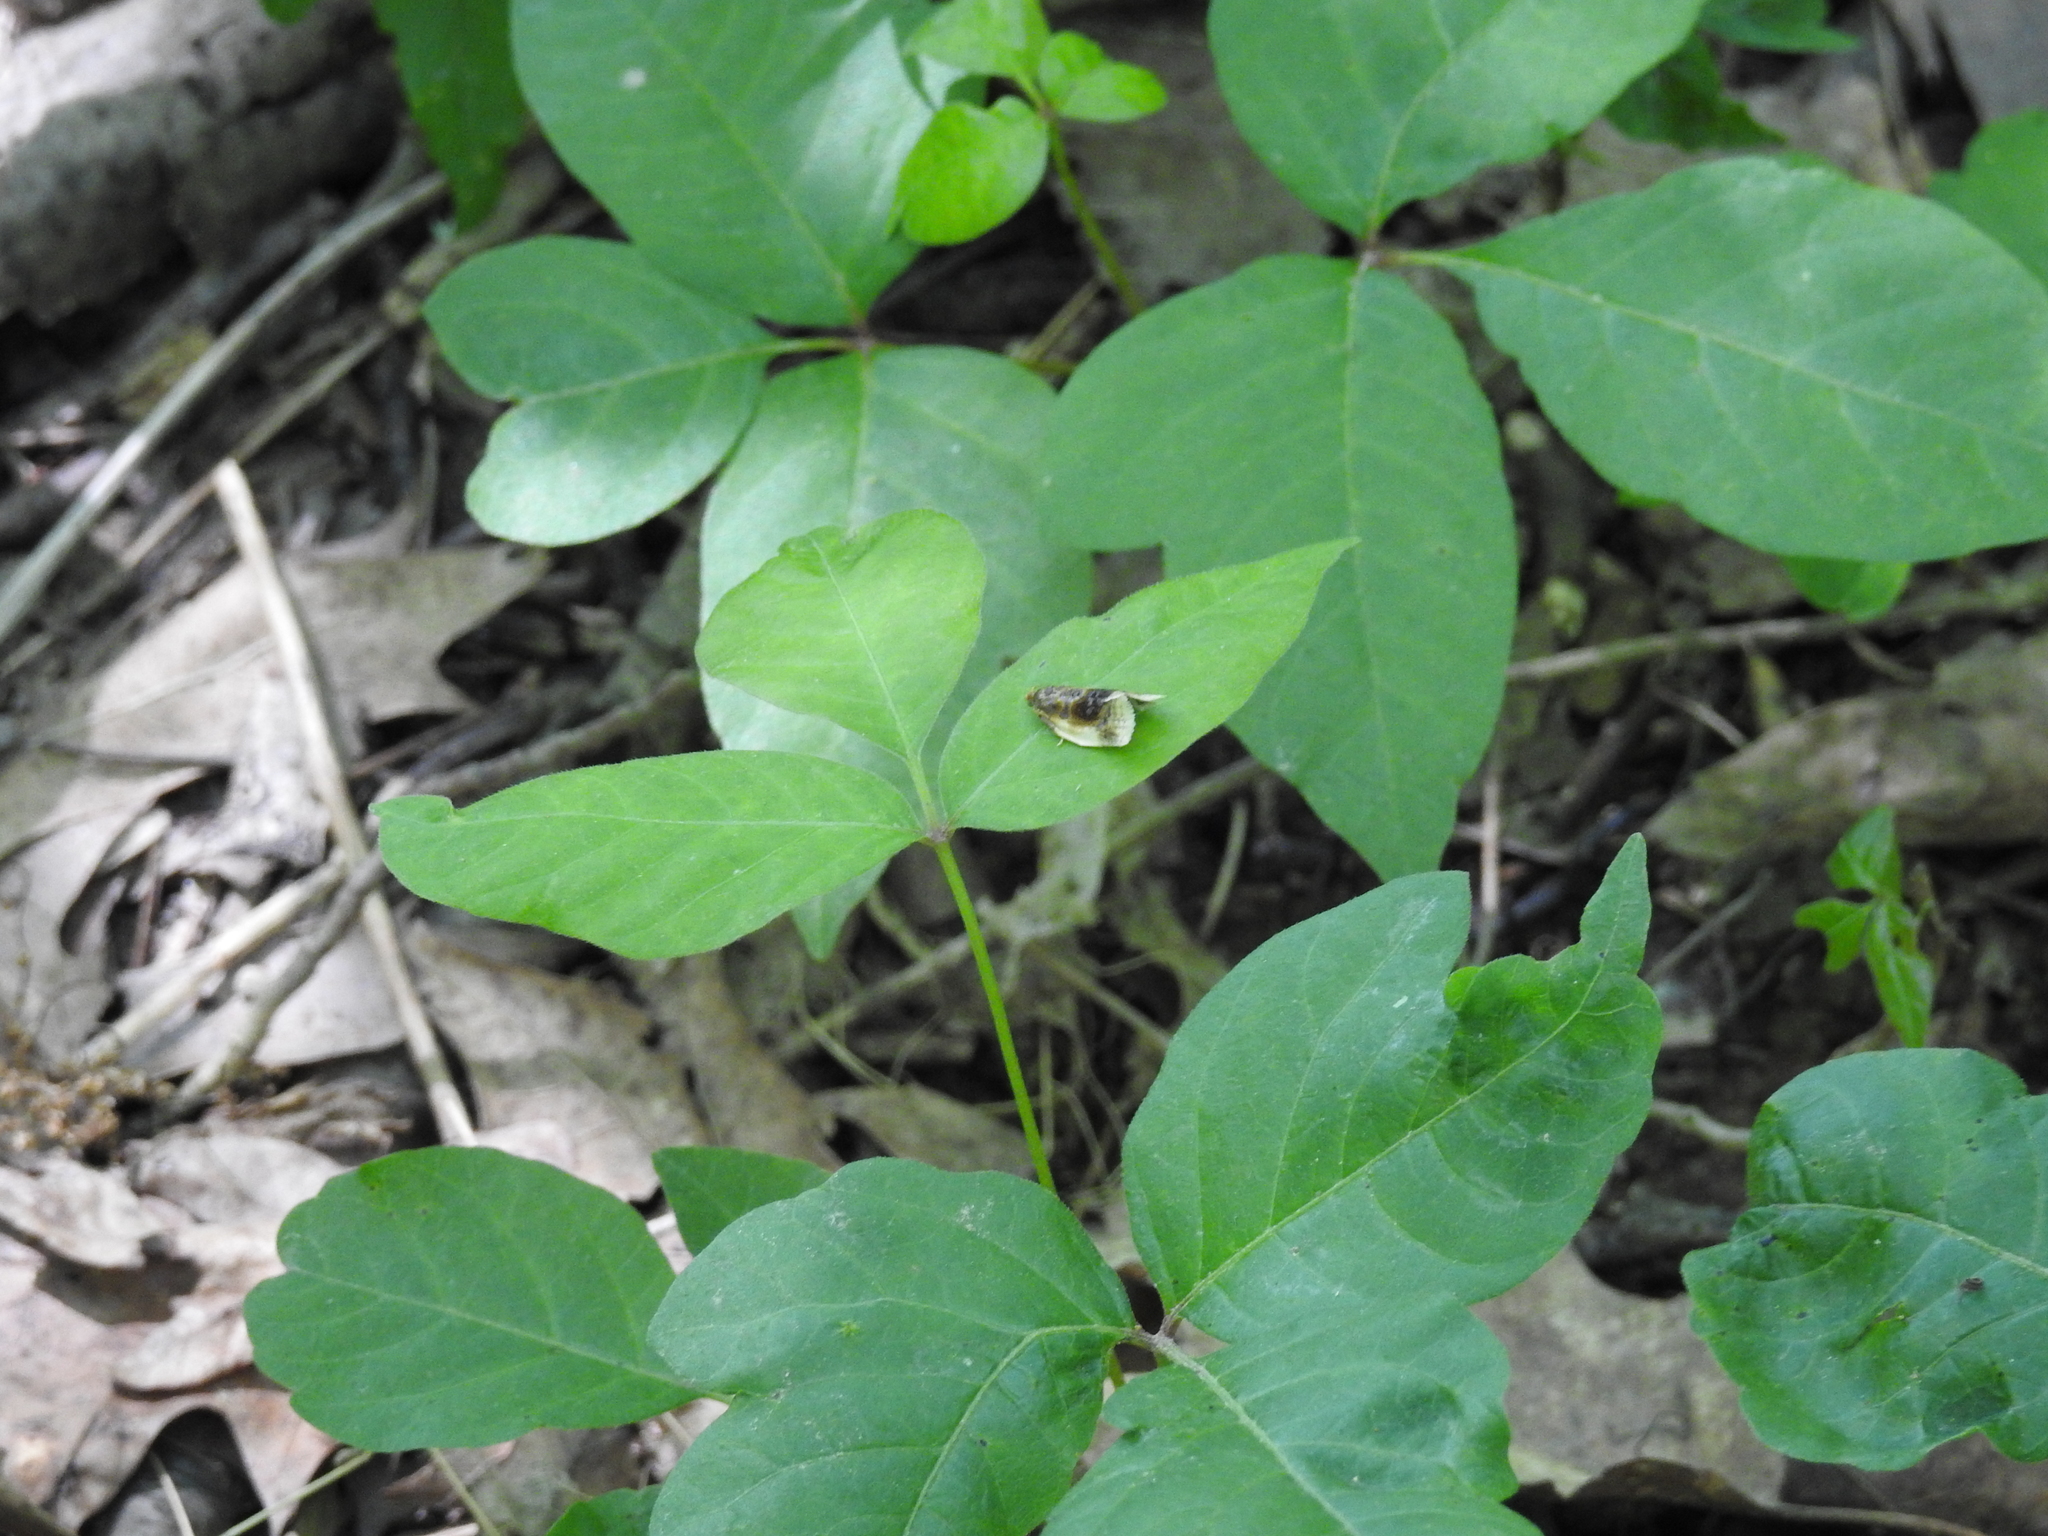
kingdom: Animalia
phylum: Arthropoda
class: Insecta
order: Lepidoptera
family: Tortricidae
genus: Clepsis
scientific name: Clepsis melaleucanus
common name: American apple tortrix
